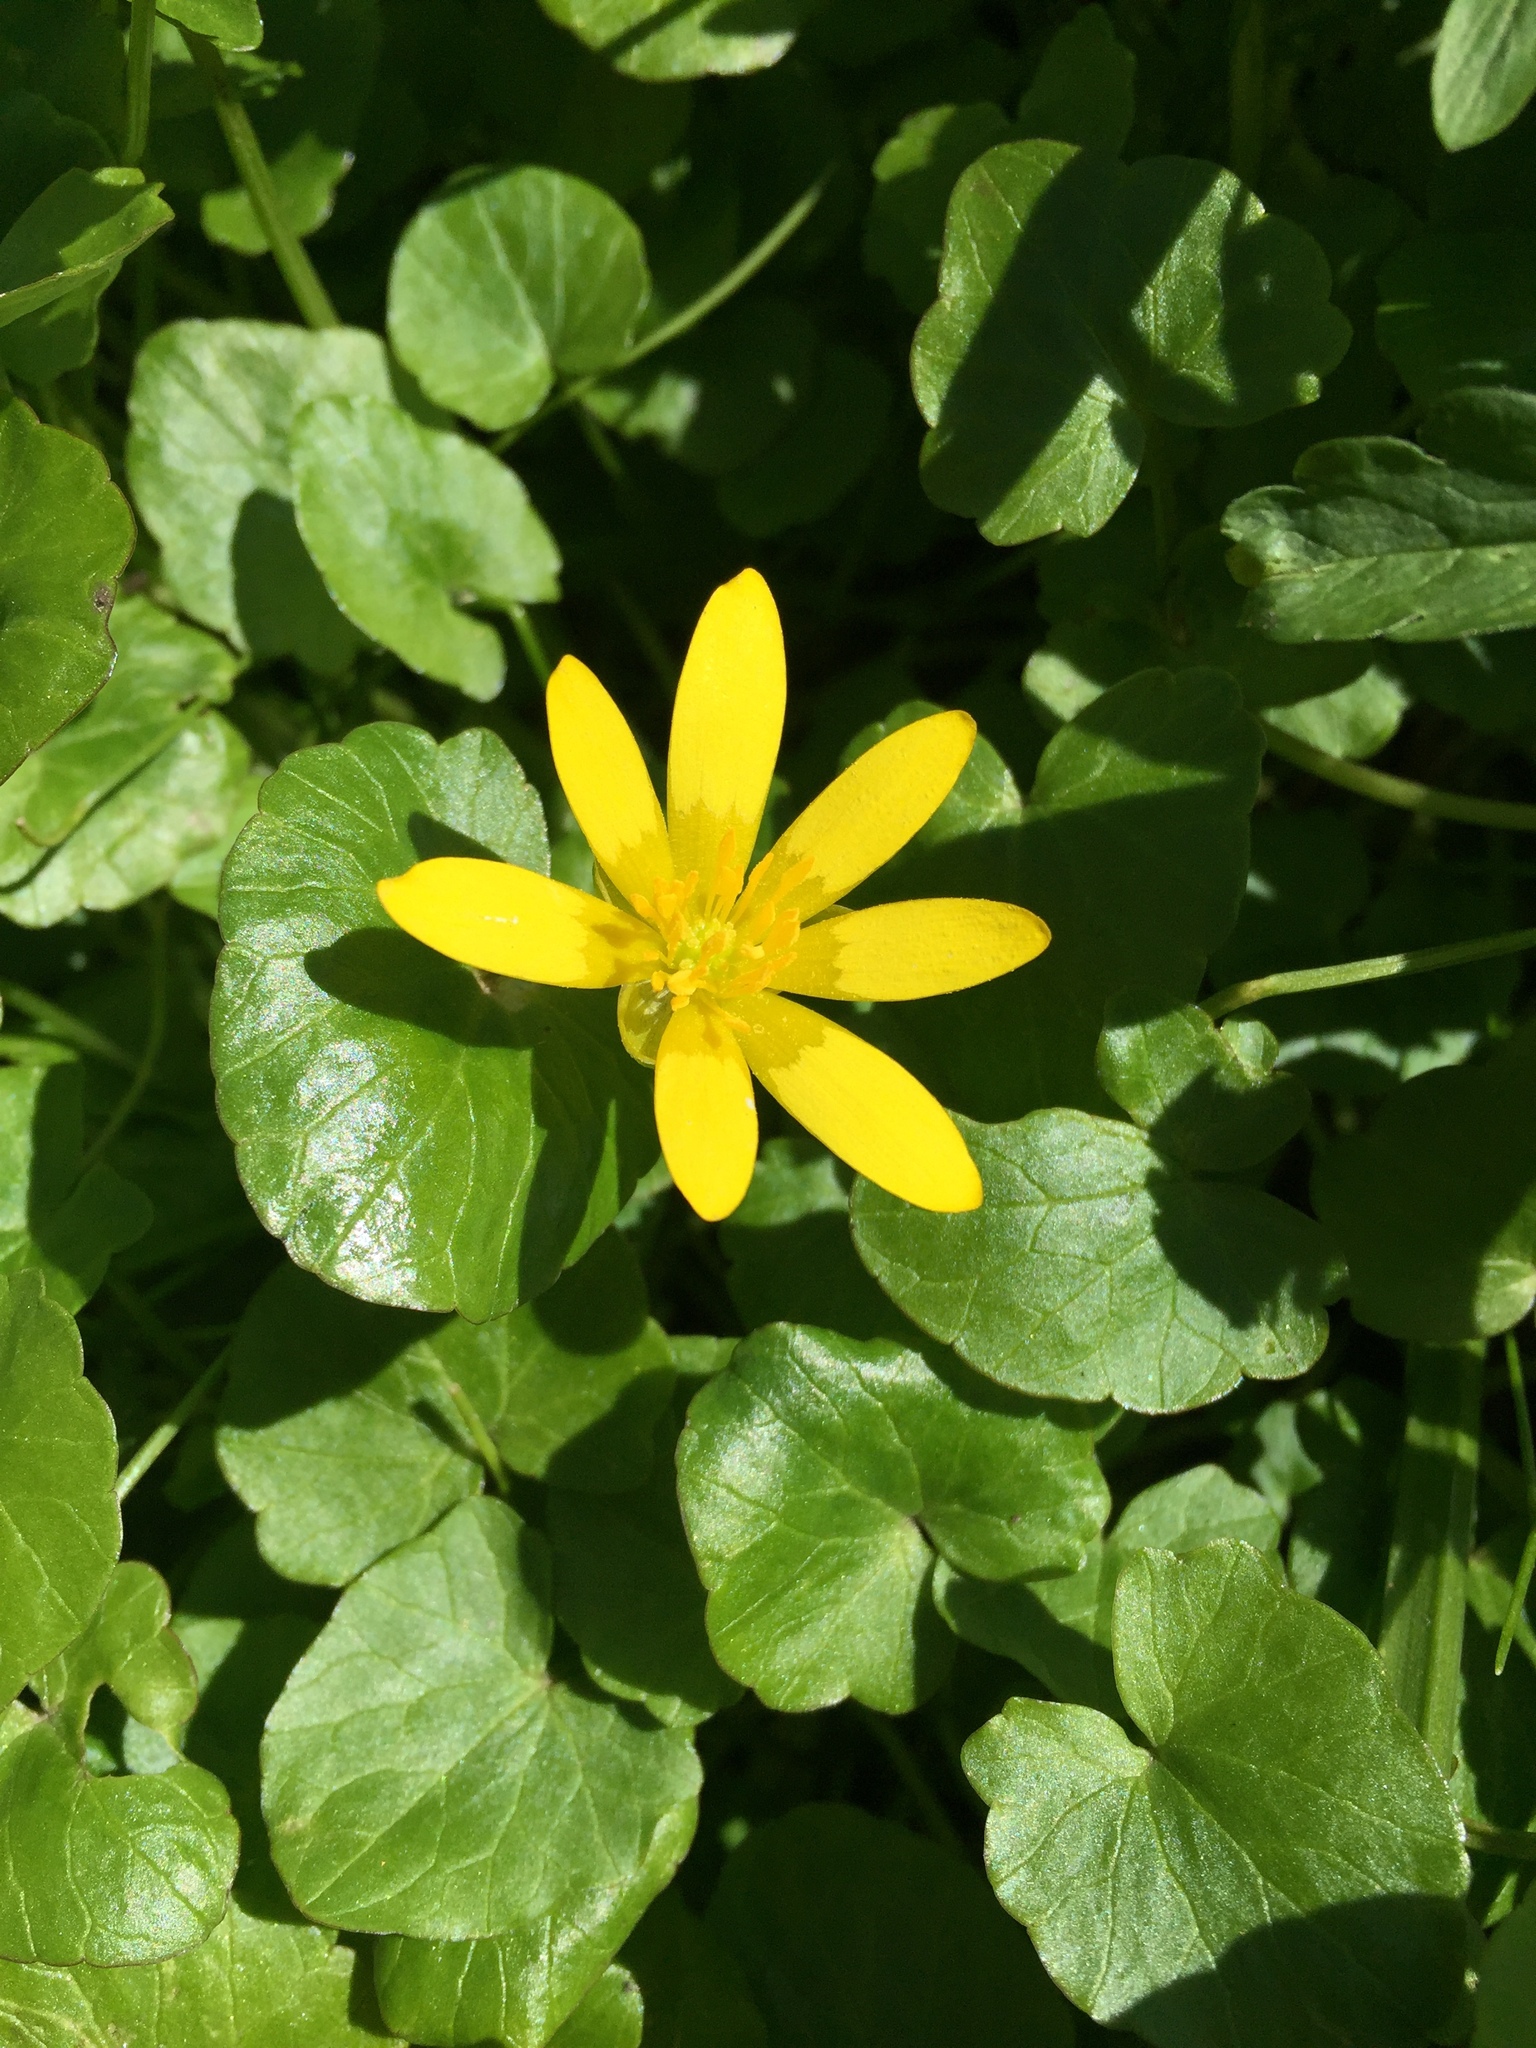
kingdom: Plantae
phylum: Tracheophyta
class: Magnoliopsida
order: Ranunculales
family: Ranunculaceae
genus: Ficaria
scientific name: Ficaria verna
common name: Lesser celandine
